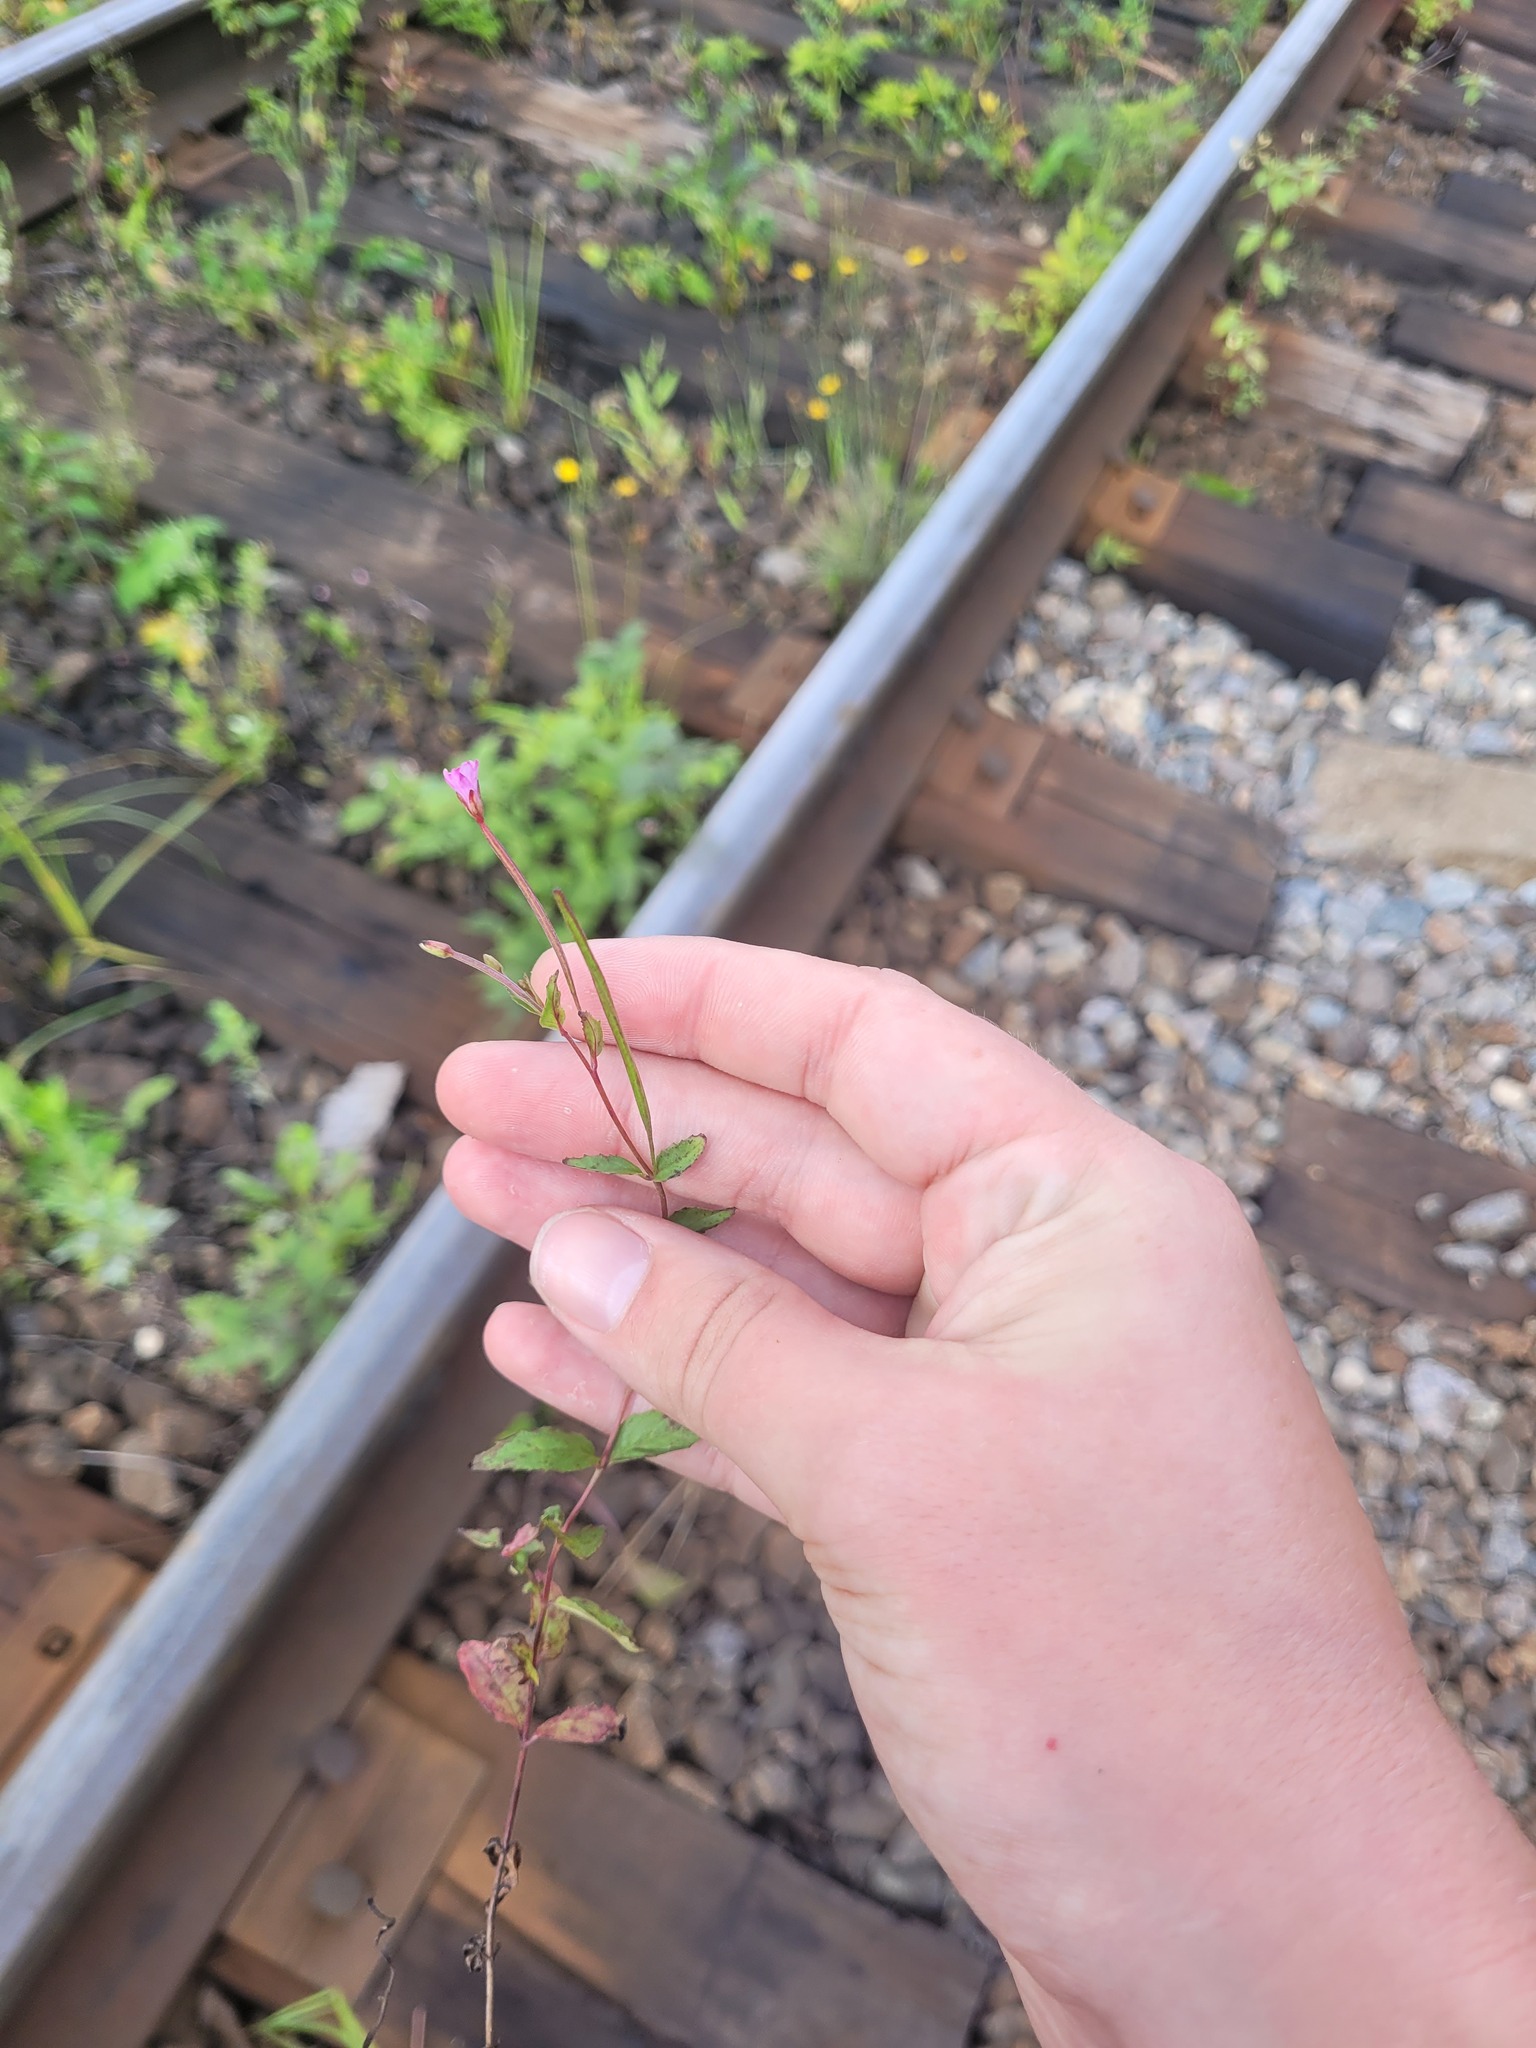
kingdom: Plantae
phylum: Tracheophyta
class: Magnoliopsida
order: Myrtales
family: Onagraceae
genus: Epilobium
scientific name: Epilobium montanum
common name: Broad-leaved willowherb
